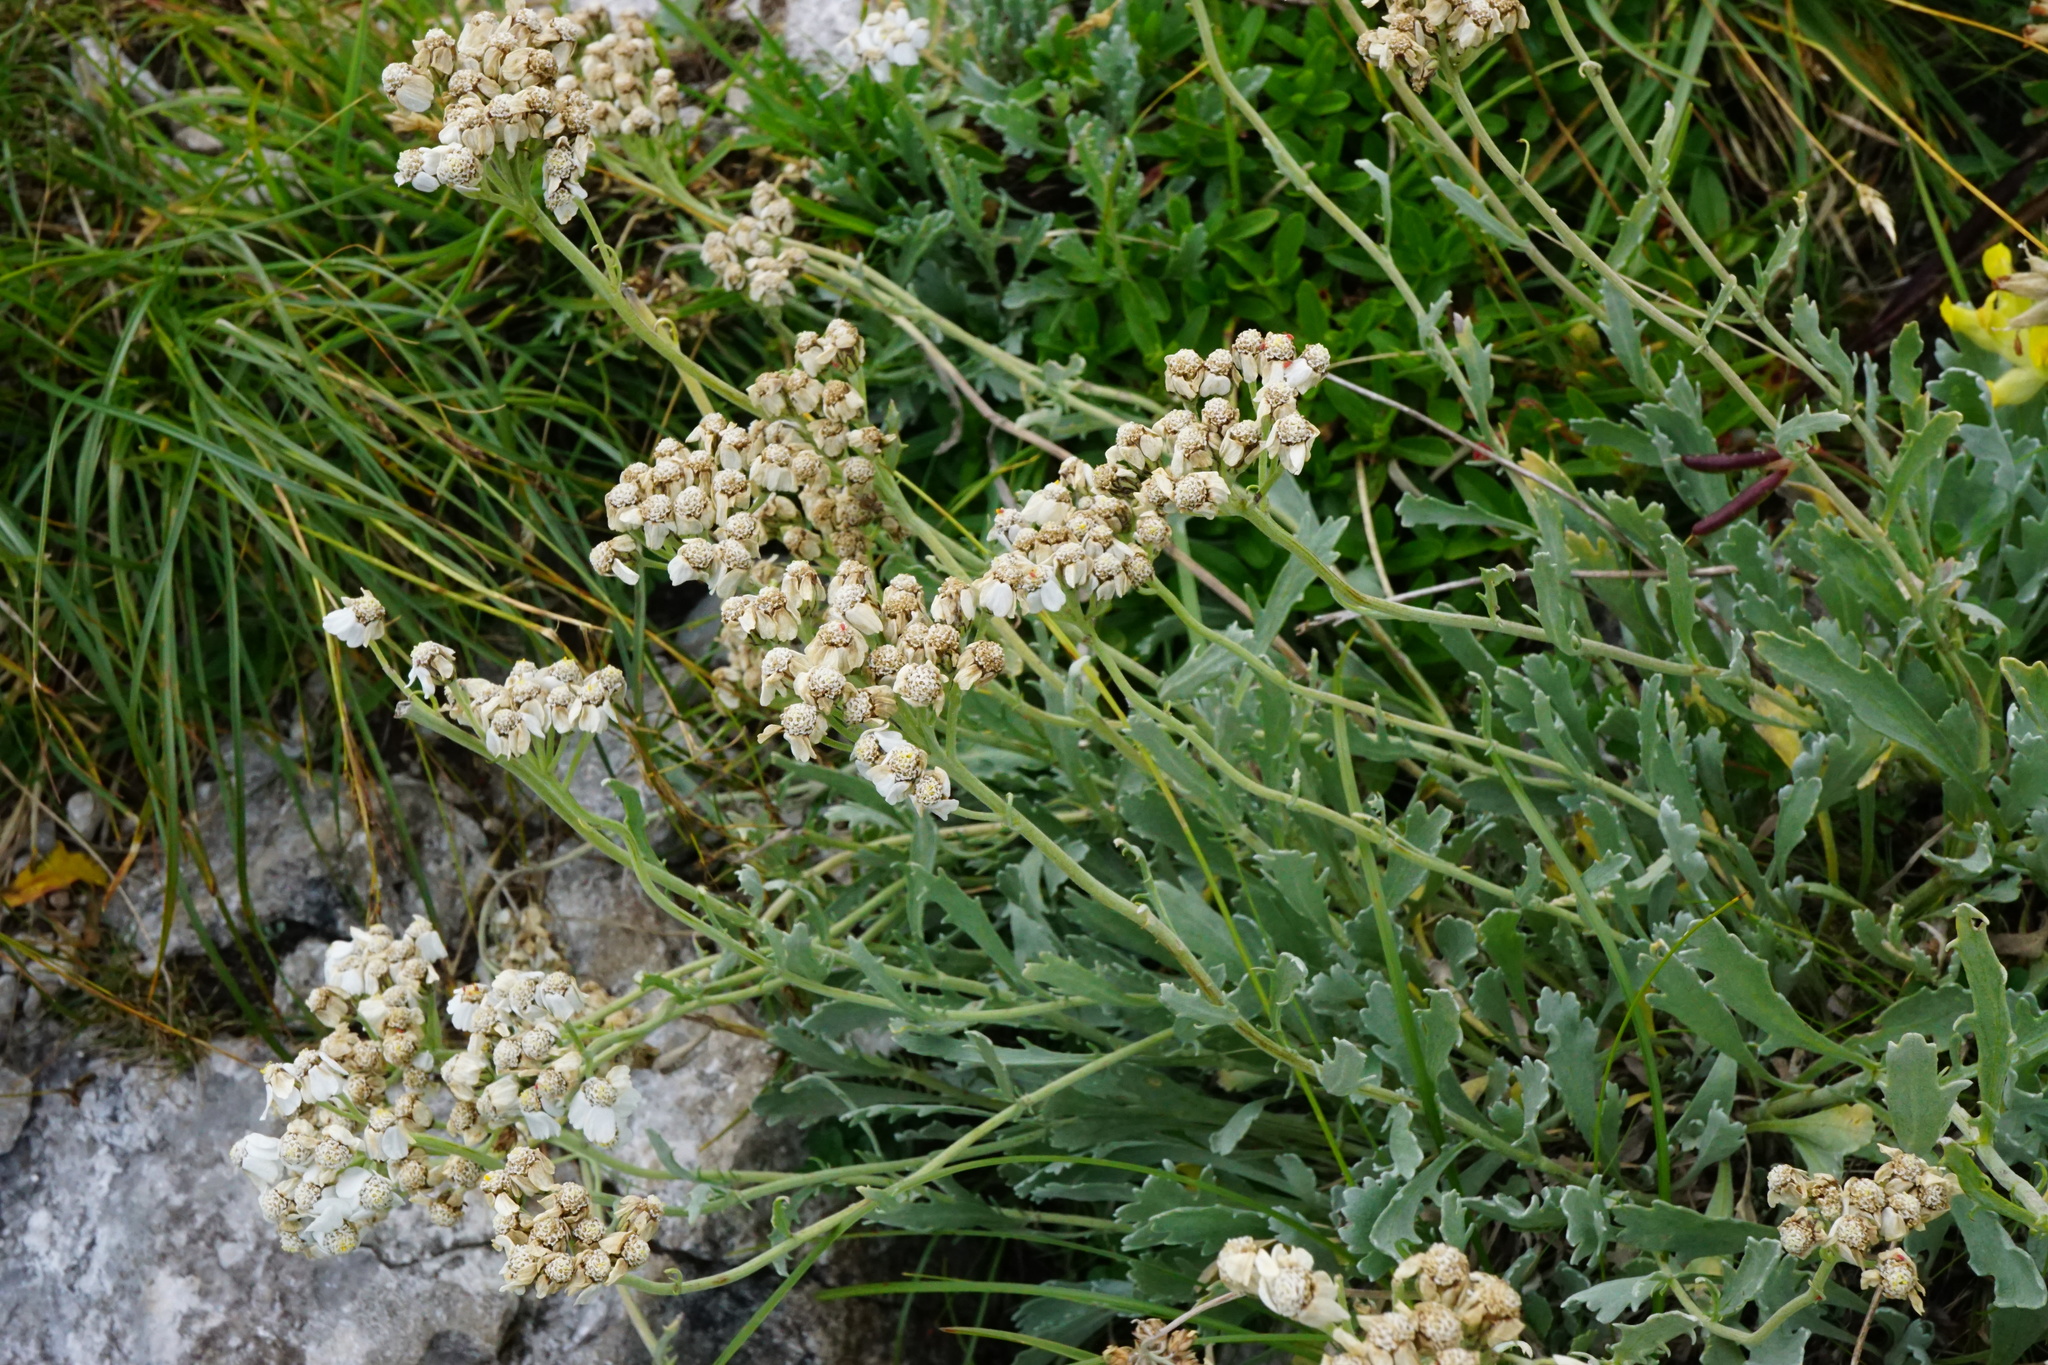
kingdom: Plantae
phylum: Tracheophyta
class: Magnoliopsida
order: Asterales
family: Asteraceae
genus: Achillea
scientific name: Achillea clavennae
